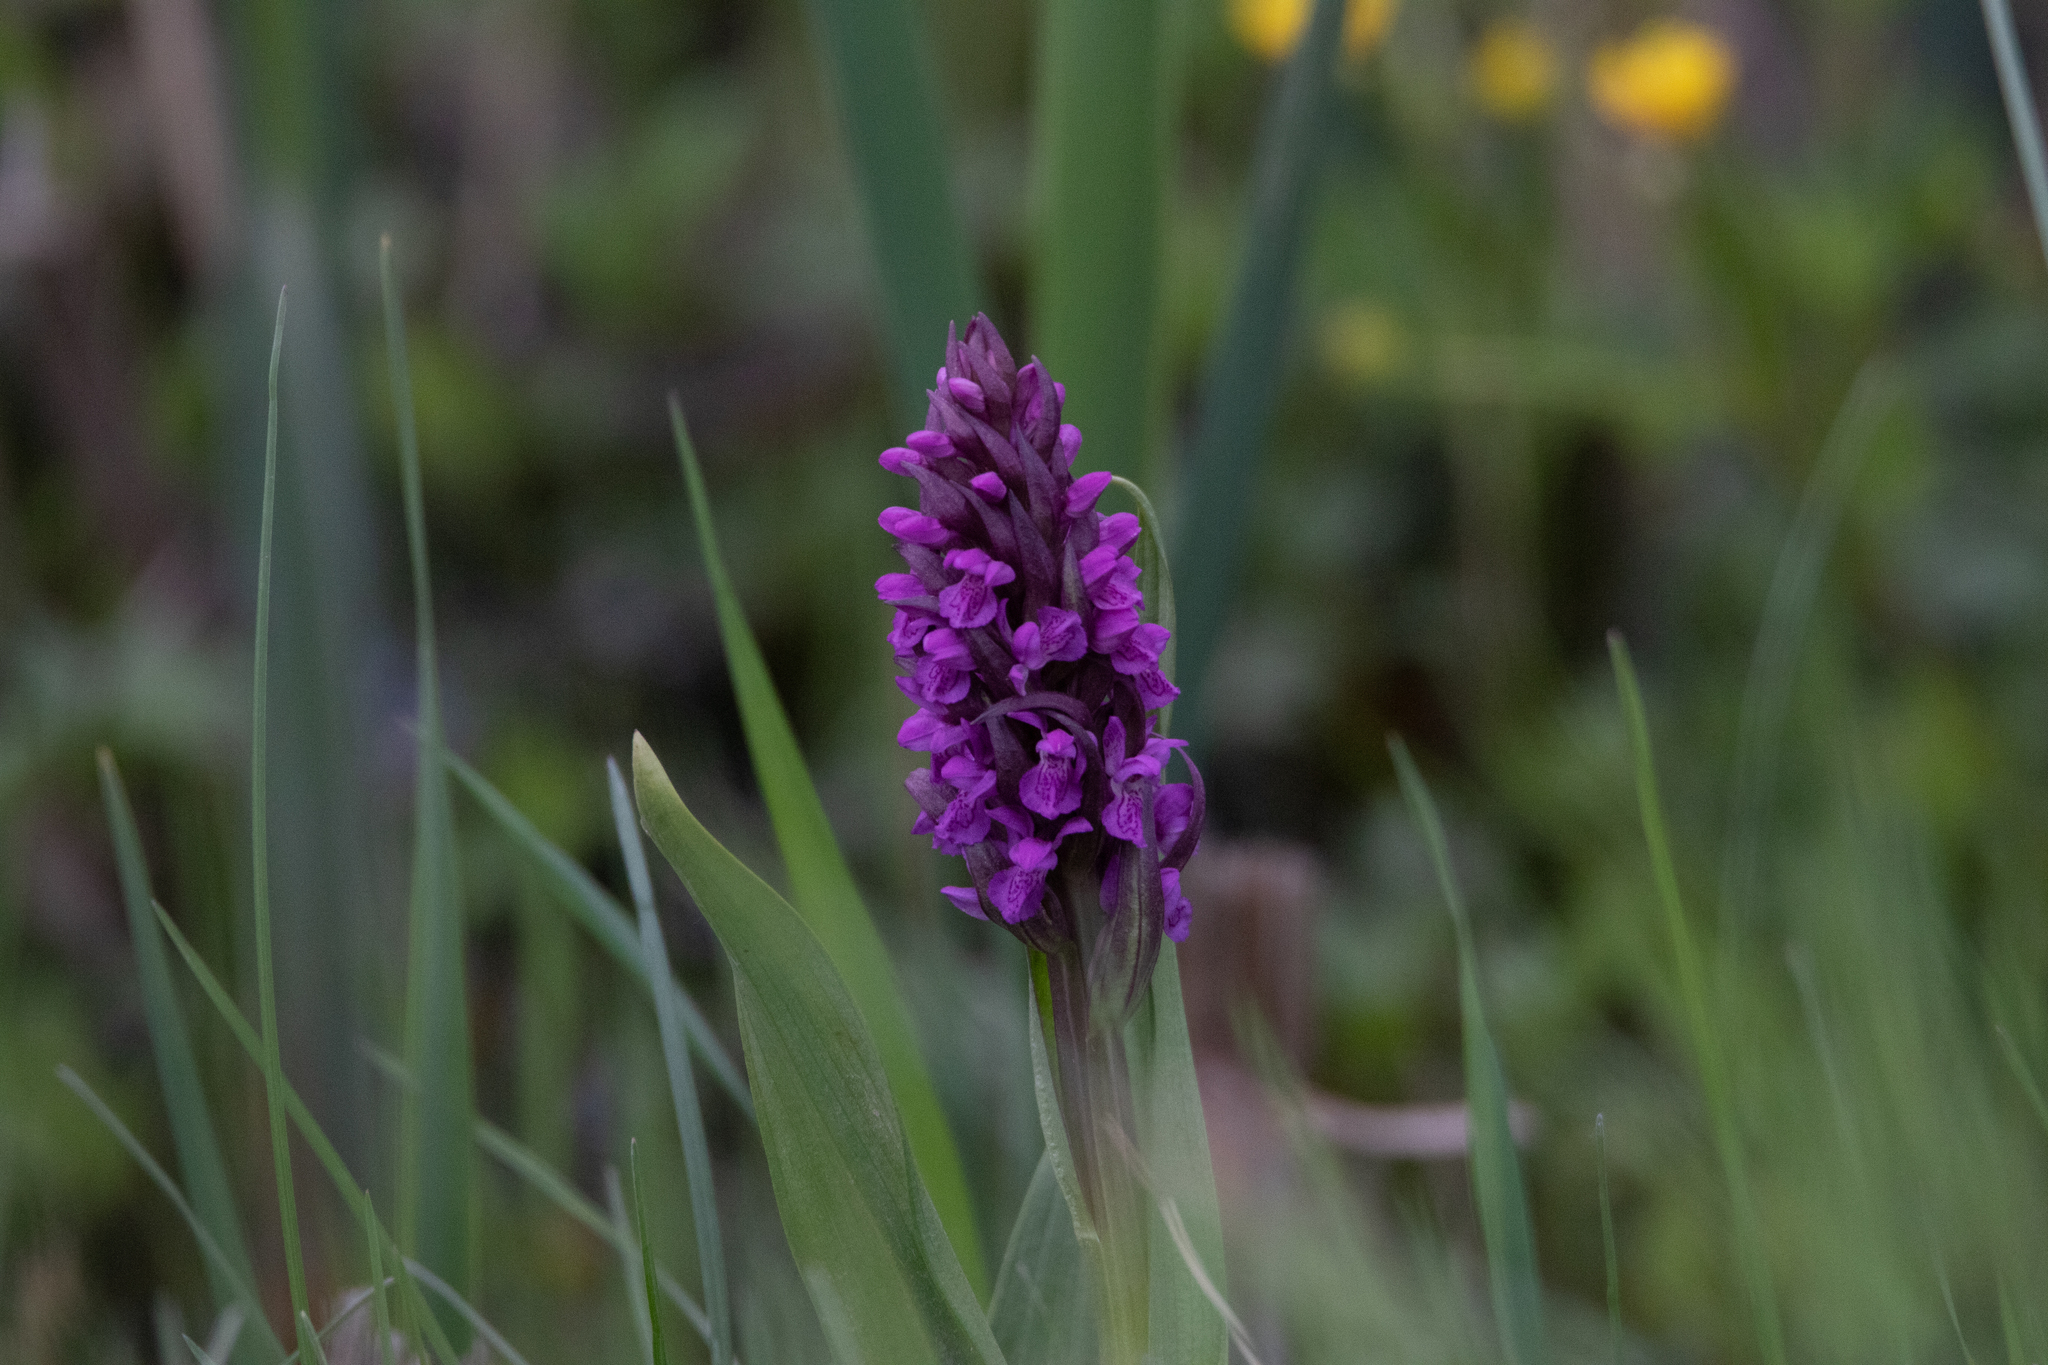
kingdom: Plantae
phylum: Tracheophyta
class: Liliopsida
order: Asparagales
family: Orchidaceae
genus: Dactylorhiza
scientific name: Dactylorhiza incarnata
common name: Early marsh-orchid
